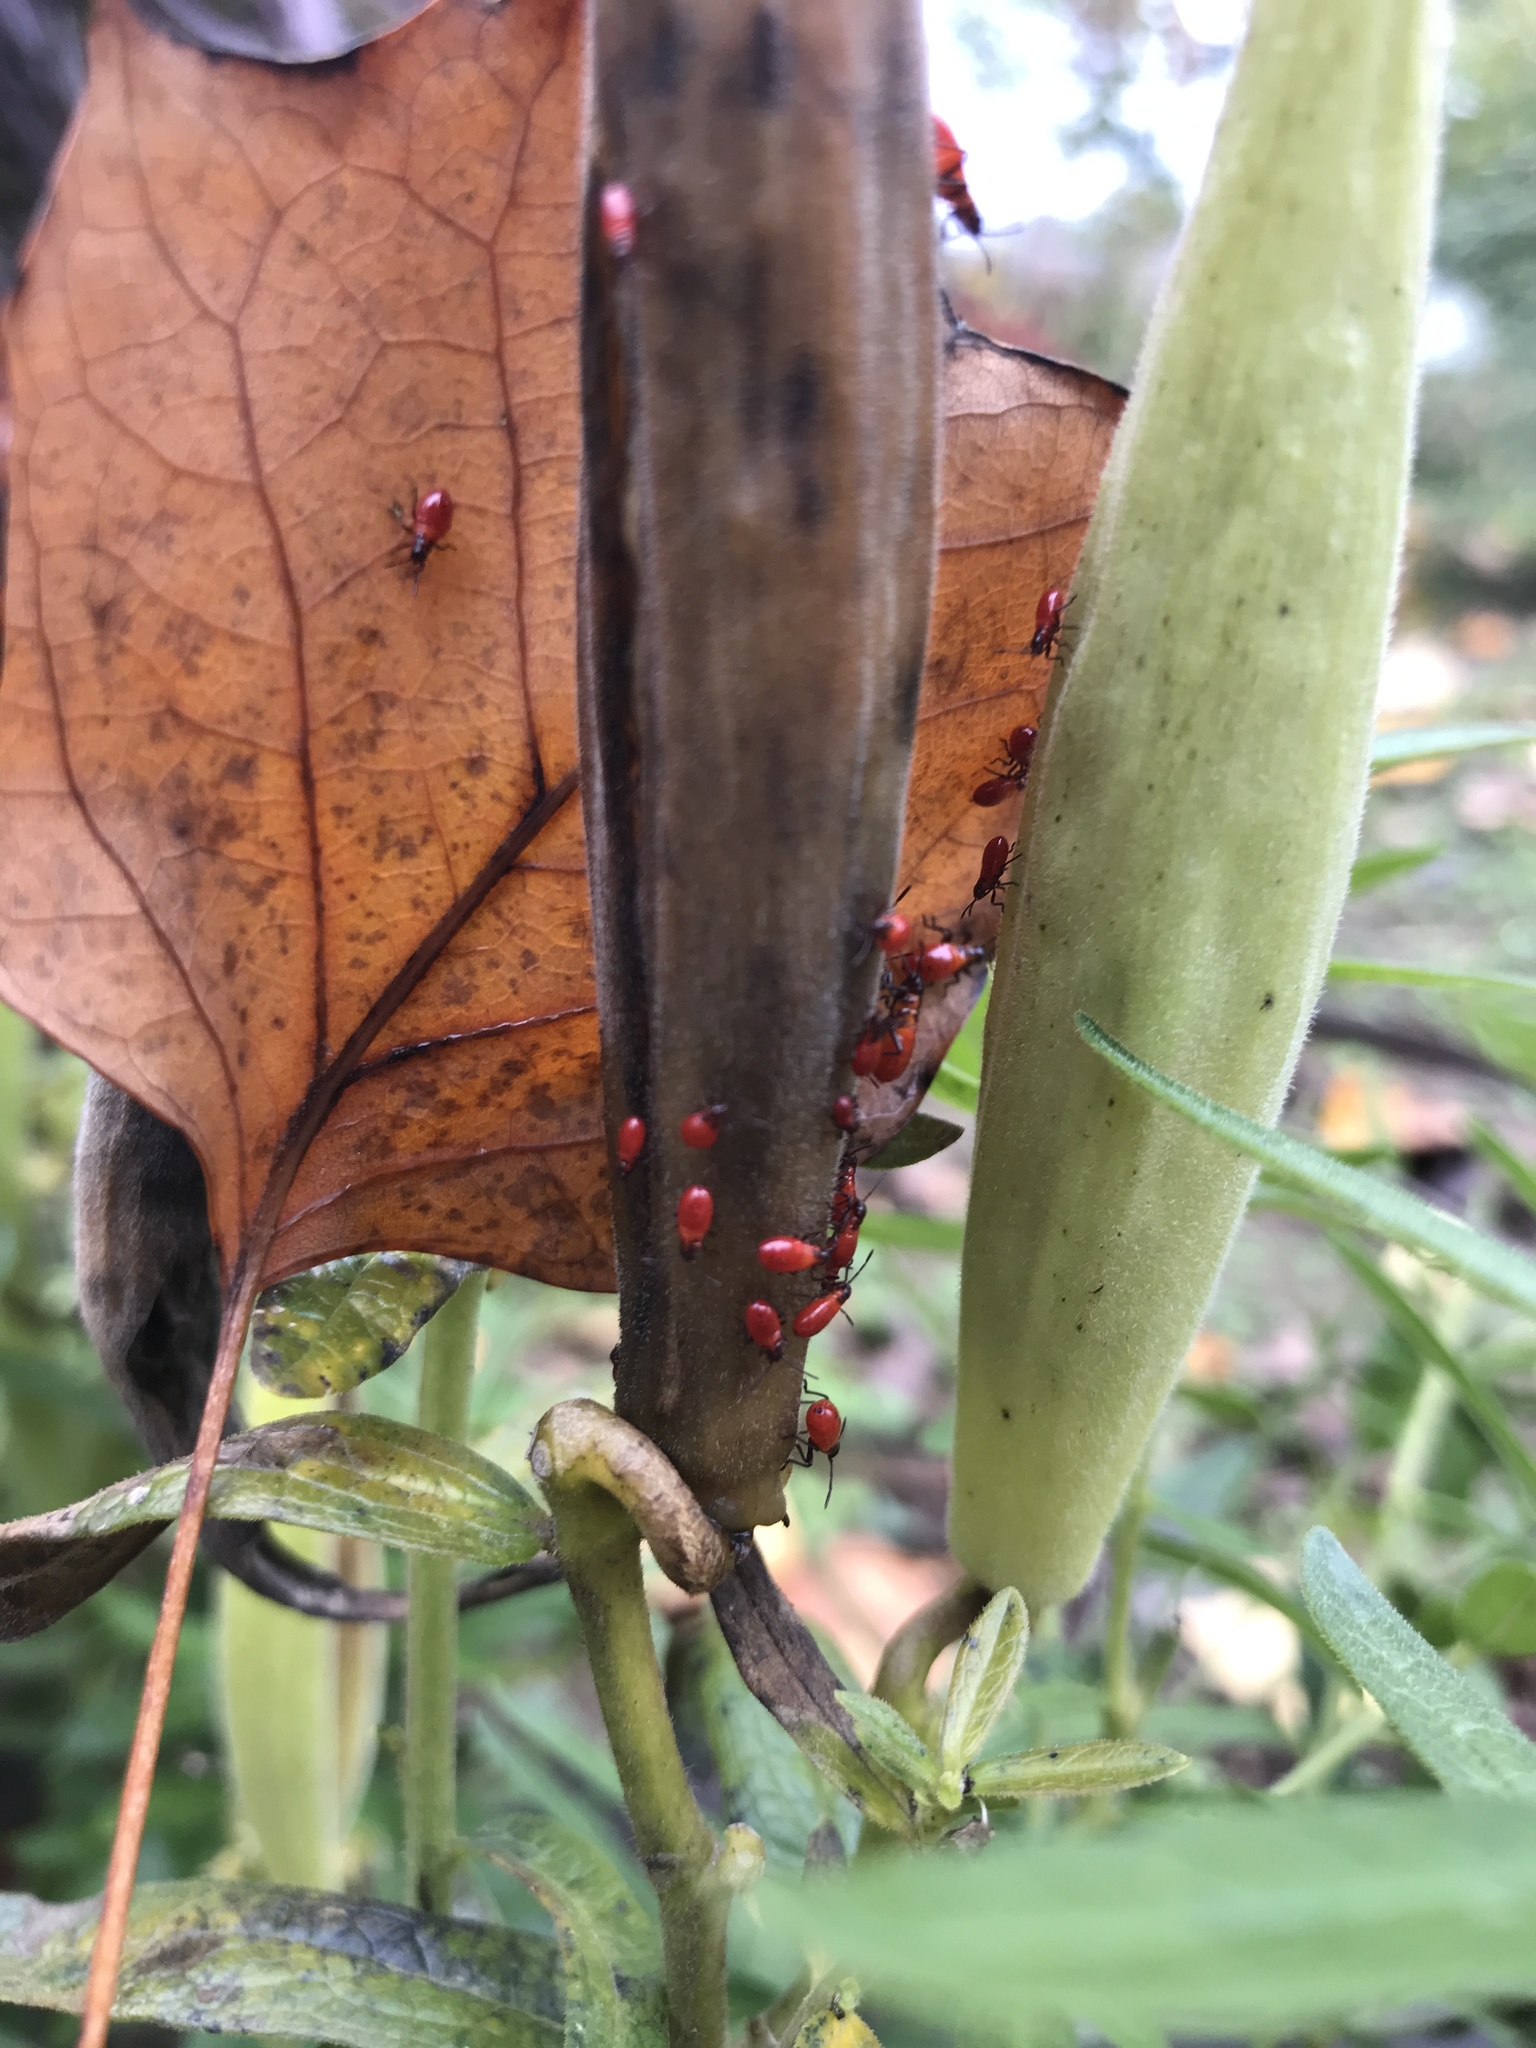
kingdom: Animalia
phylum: Arthropoda
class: Insecta
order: Hemiptera
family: Lygaeidae
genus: Oncopeltus
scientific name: Oncopeltus fasciatus
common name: Large milkweed bug
